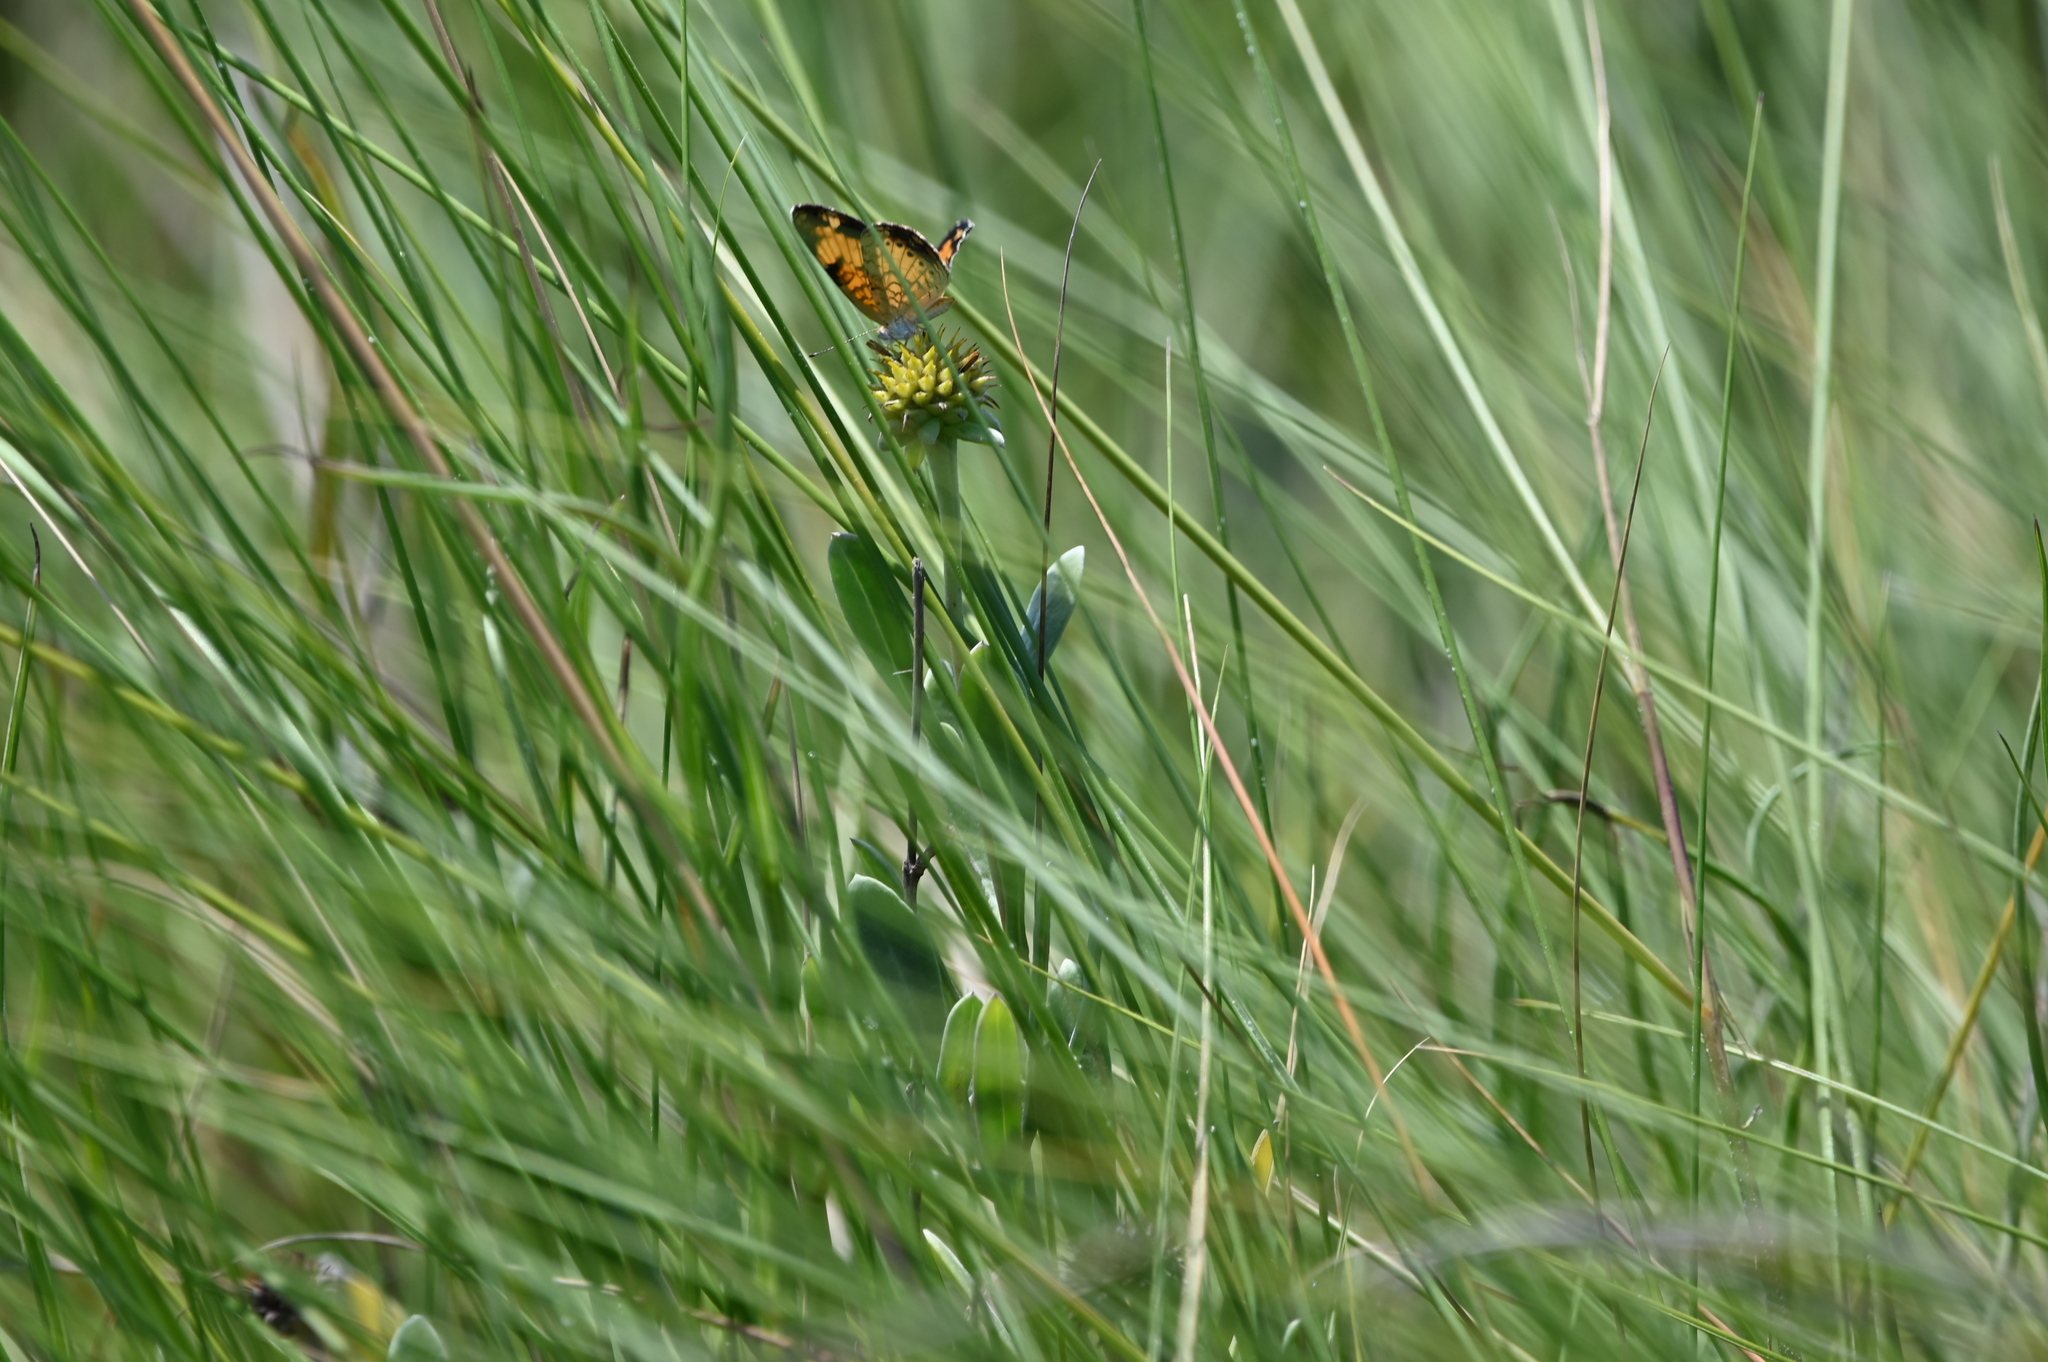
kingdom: Animalia
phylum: Arthropoda
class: Insecta
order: Lepidoptera
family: Nymphalidae
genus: Phyciodes
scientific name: Phyciodes tharos
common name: Pearl crescent
